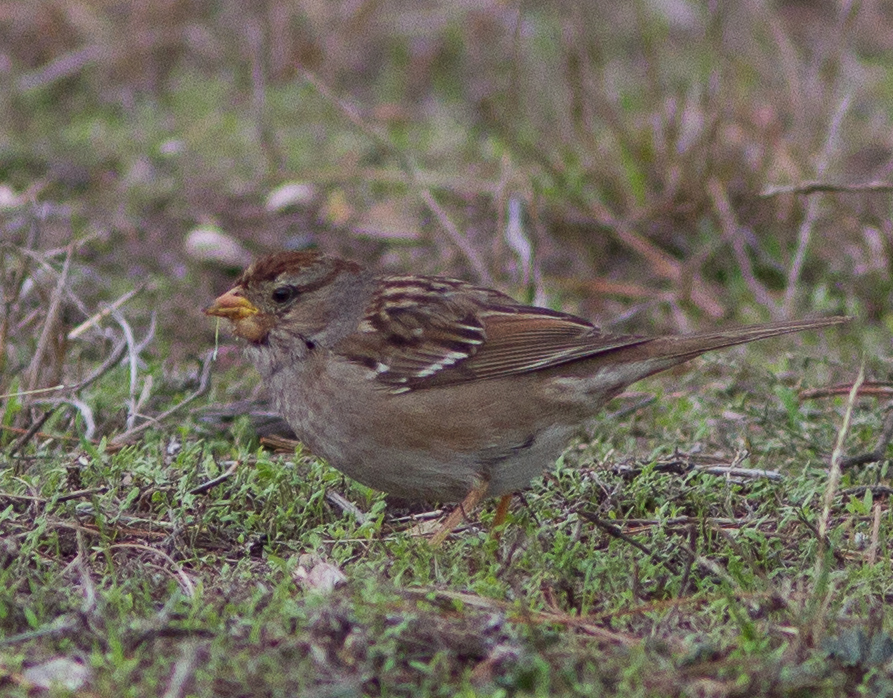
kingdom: Animalia
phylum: Chordata
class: Aves
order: Passeriformes
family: Passerellidae
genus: Zonotrichia
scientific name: Zonotrichia leucophrys
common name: White-crowned sparrow
